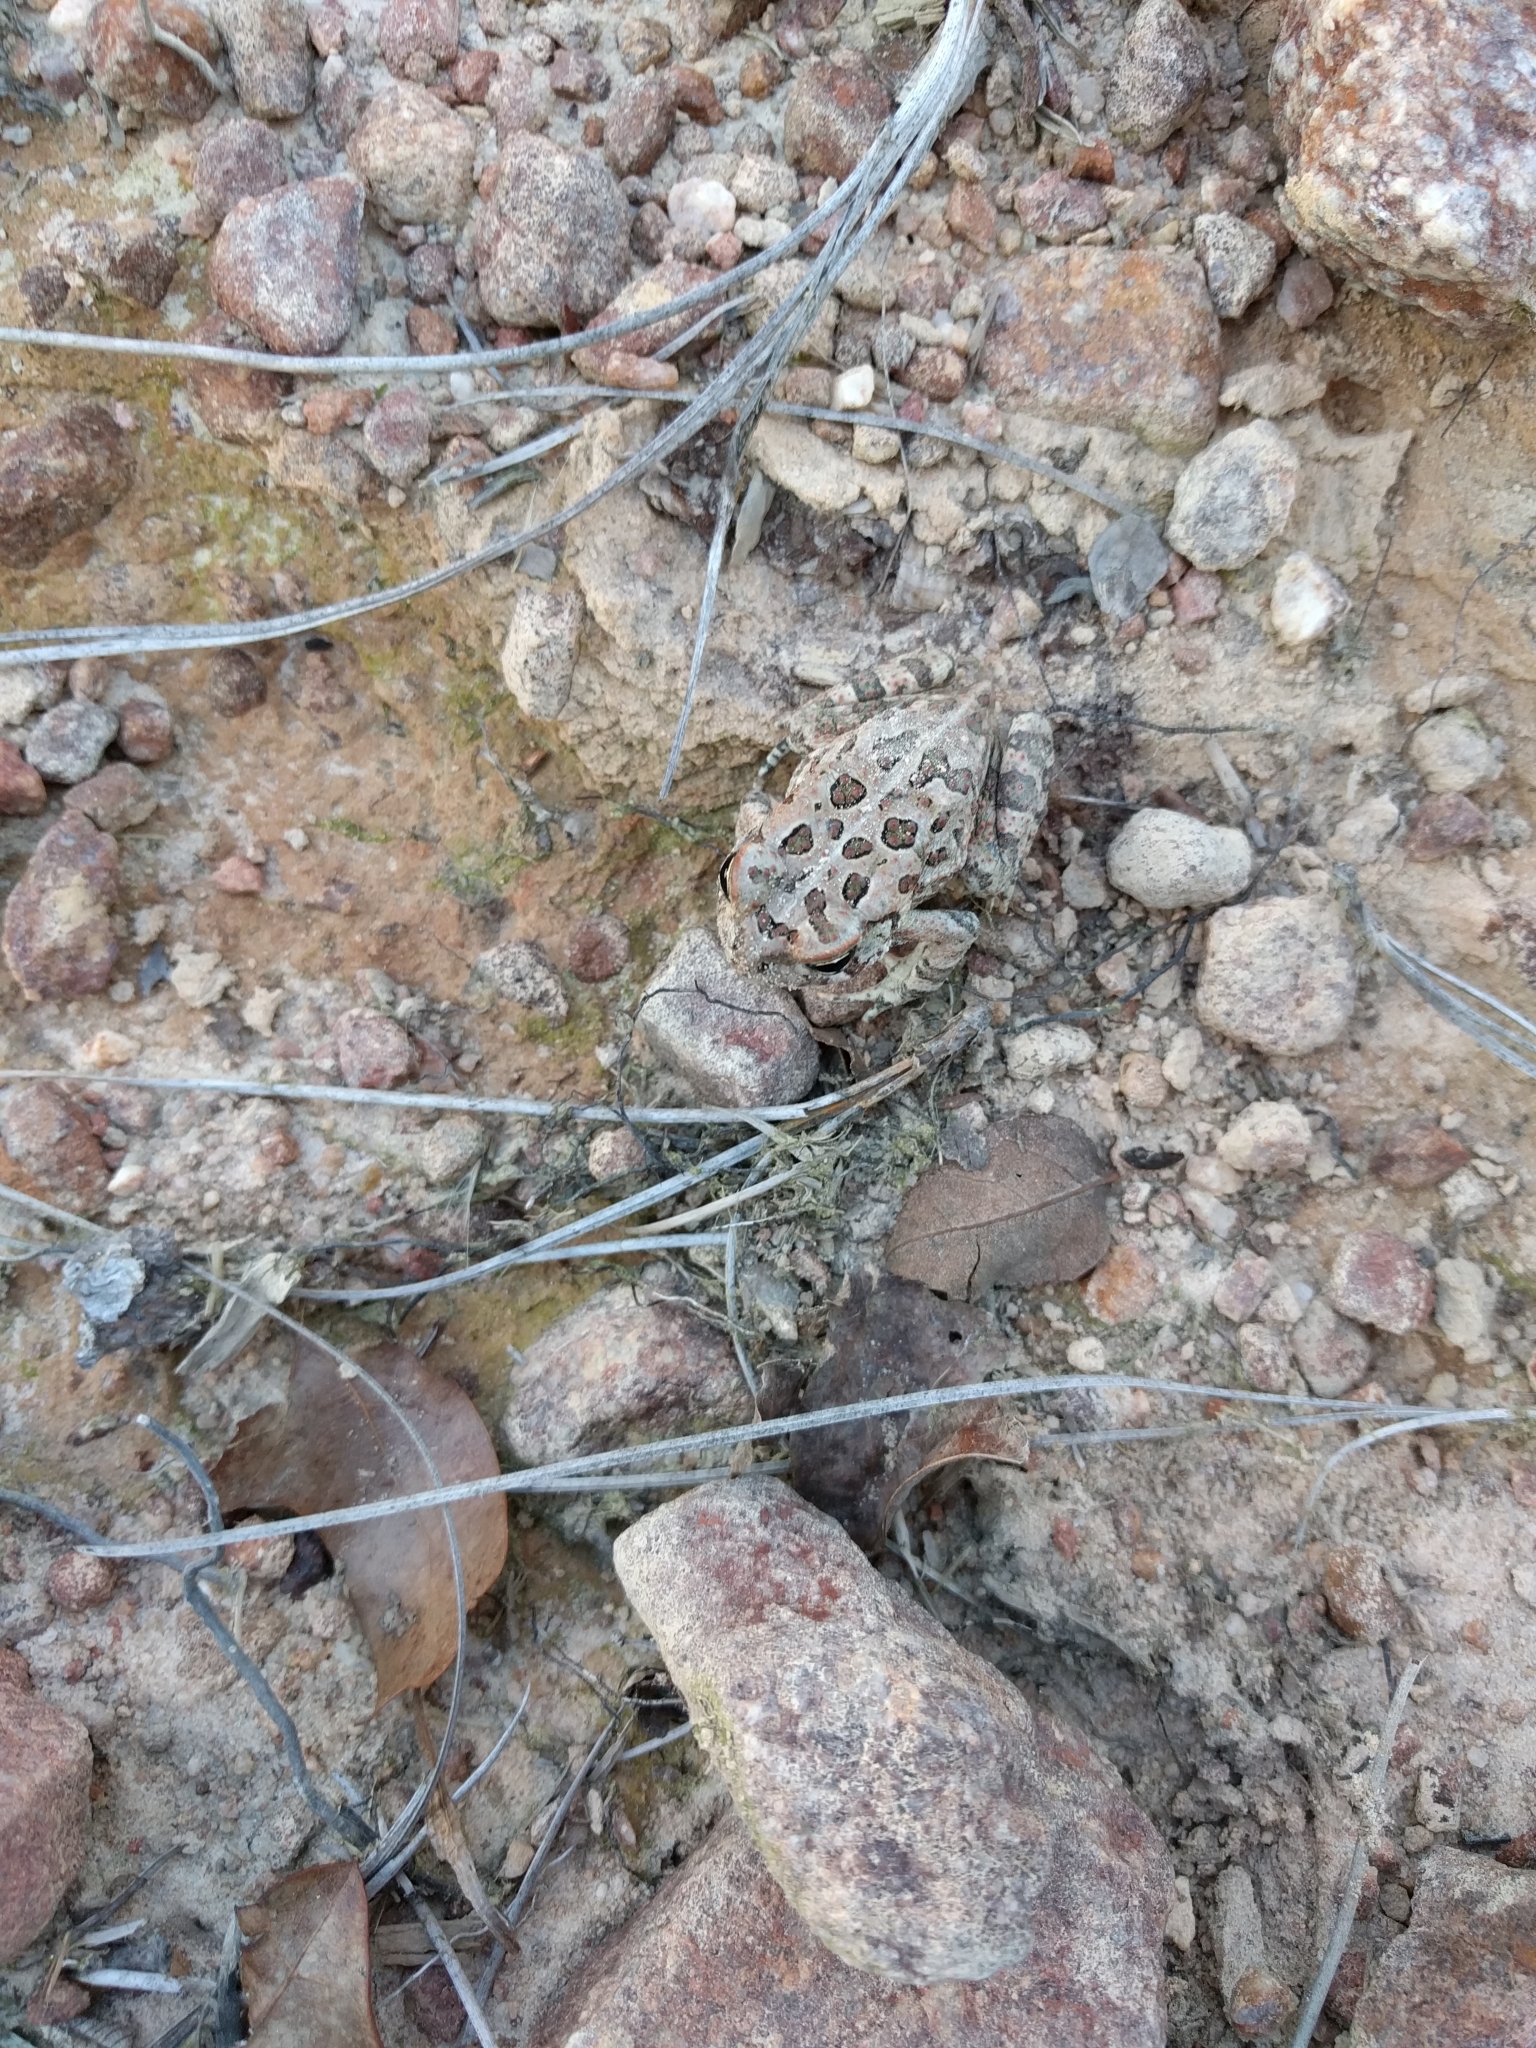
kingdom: Animalia
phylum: Chordata
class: Amphibia
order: Anura
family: Bufonidae
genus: Anaxyrus
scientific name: Anaxyrus fowleri
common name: Fowler's toad
